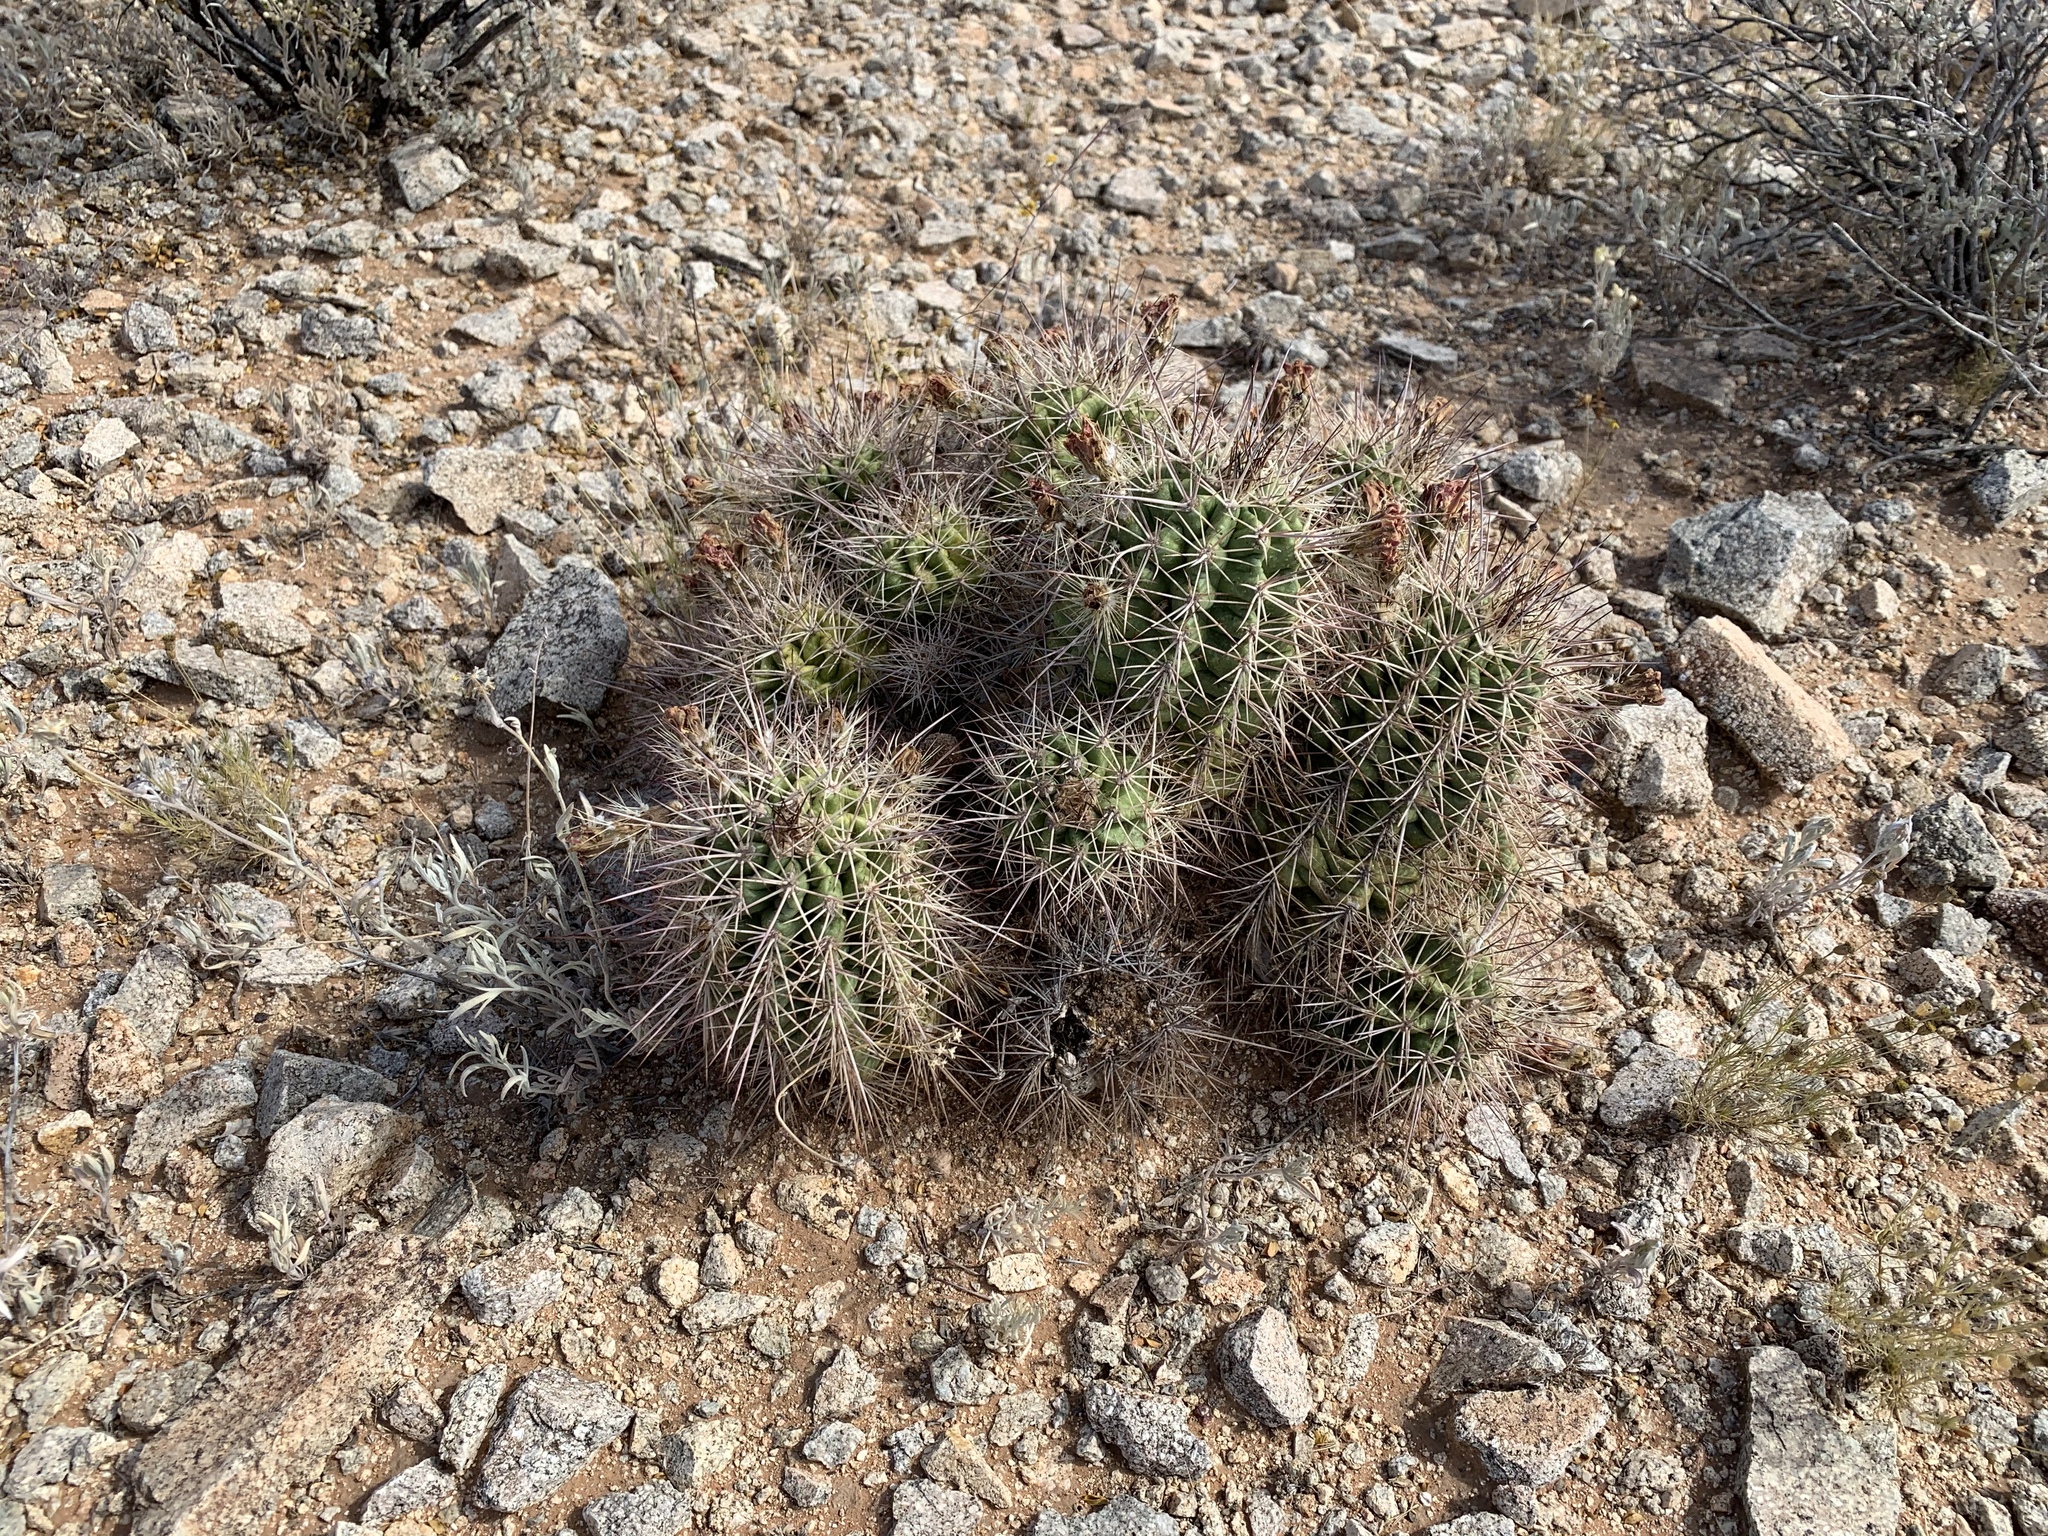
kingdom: Plantae
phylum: Tracheophyta
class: Magnoliopsida
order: Caryophyllales
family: Cactaceae
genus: Echinocereus
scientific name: Echinocereus coccineus
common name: Scarlet hedgehog cactus
